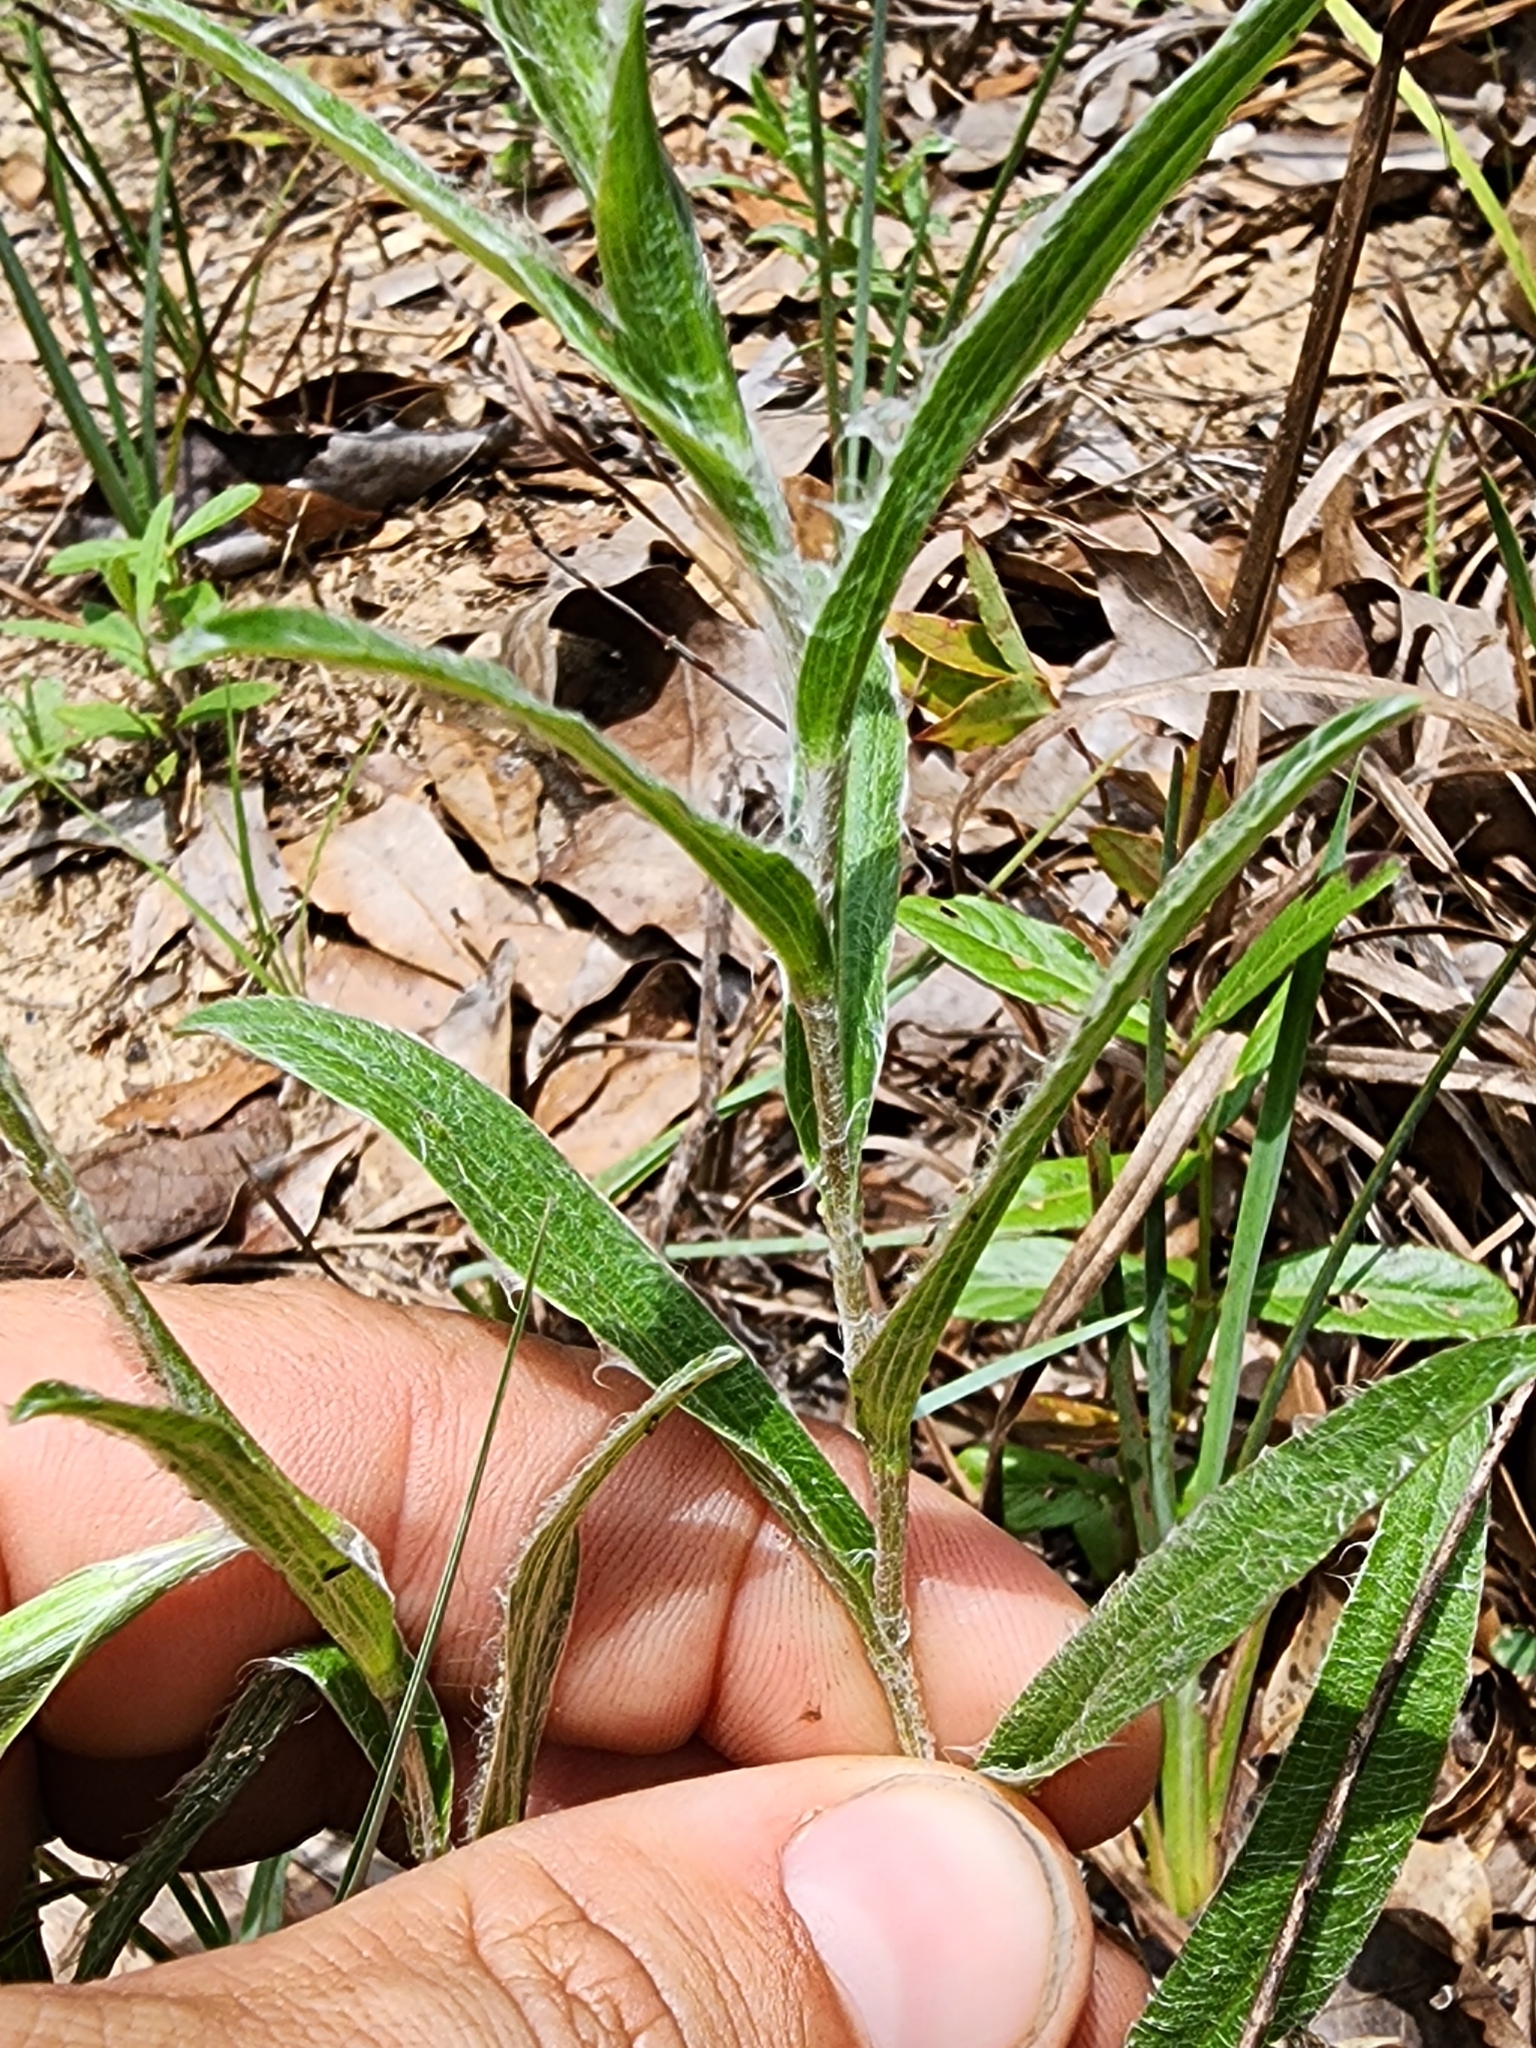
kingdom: Plantae
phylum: Tracheophyta
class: Magnoliopsida
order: Asterales
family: Asteraceae
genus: Pityopsis
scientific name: Pityopsis flexuosa
